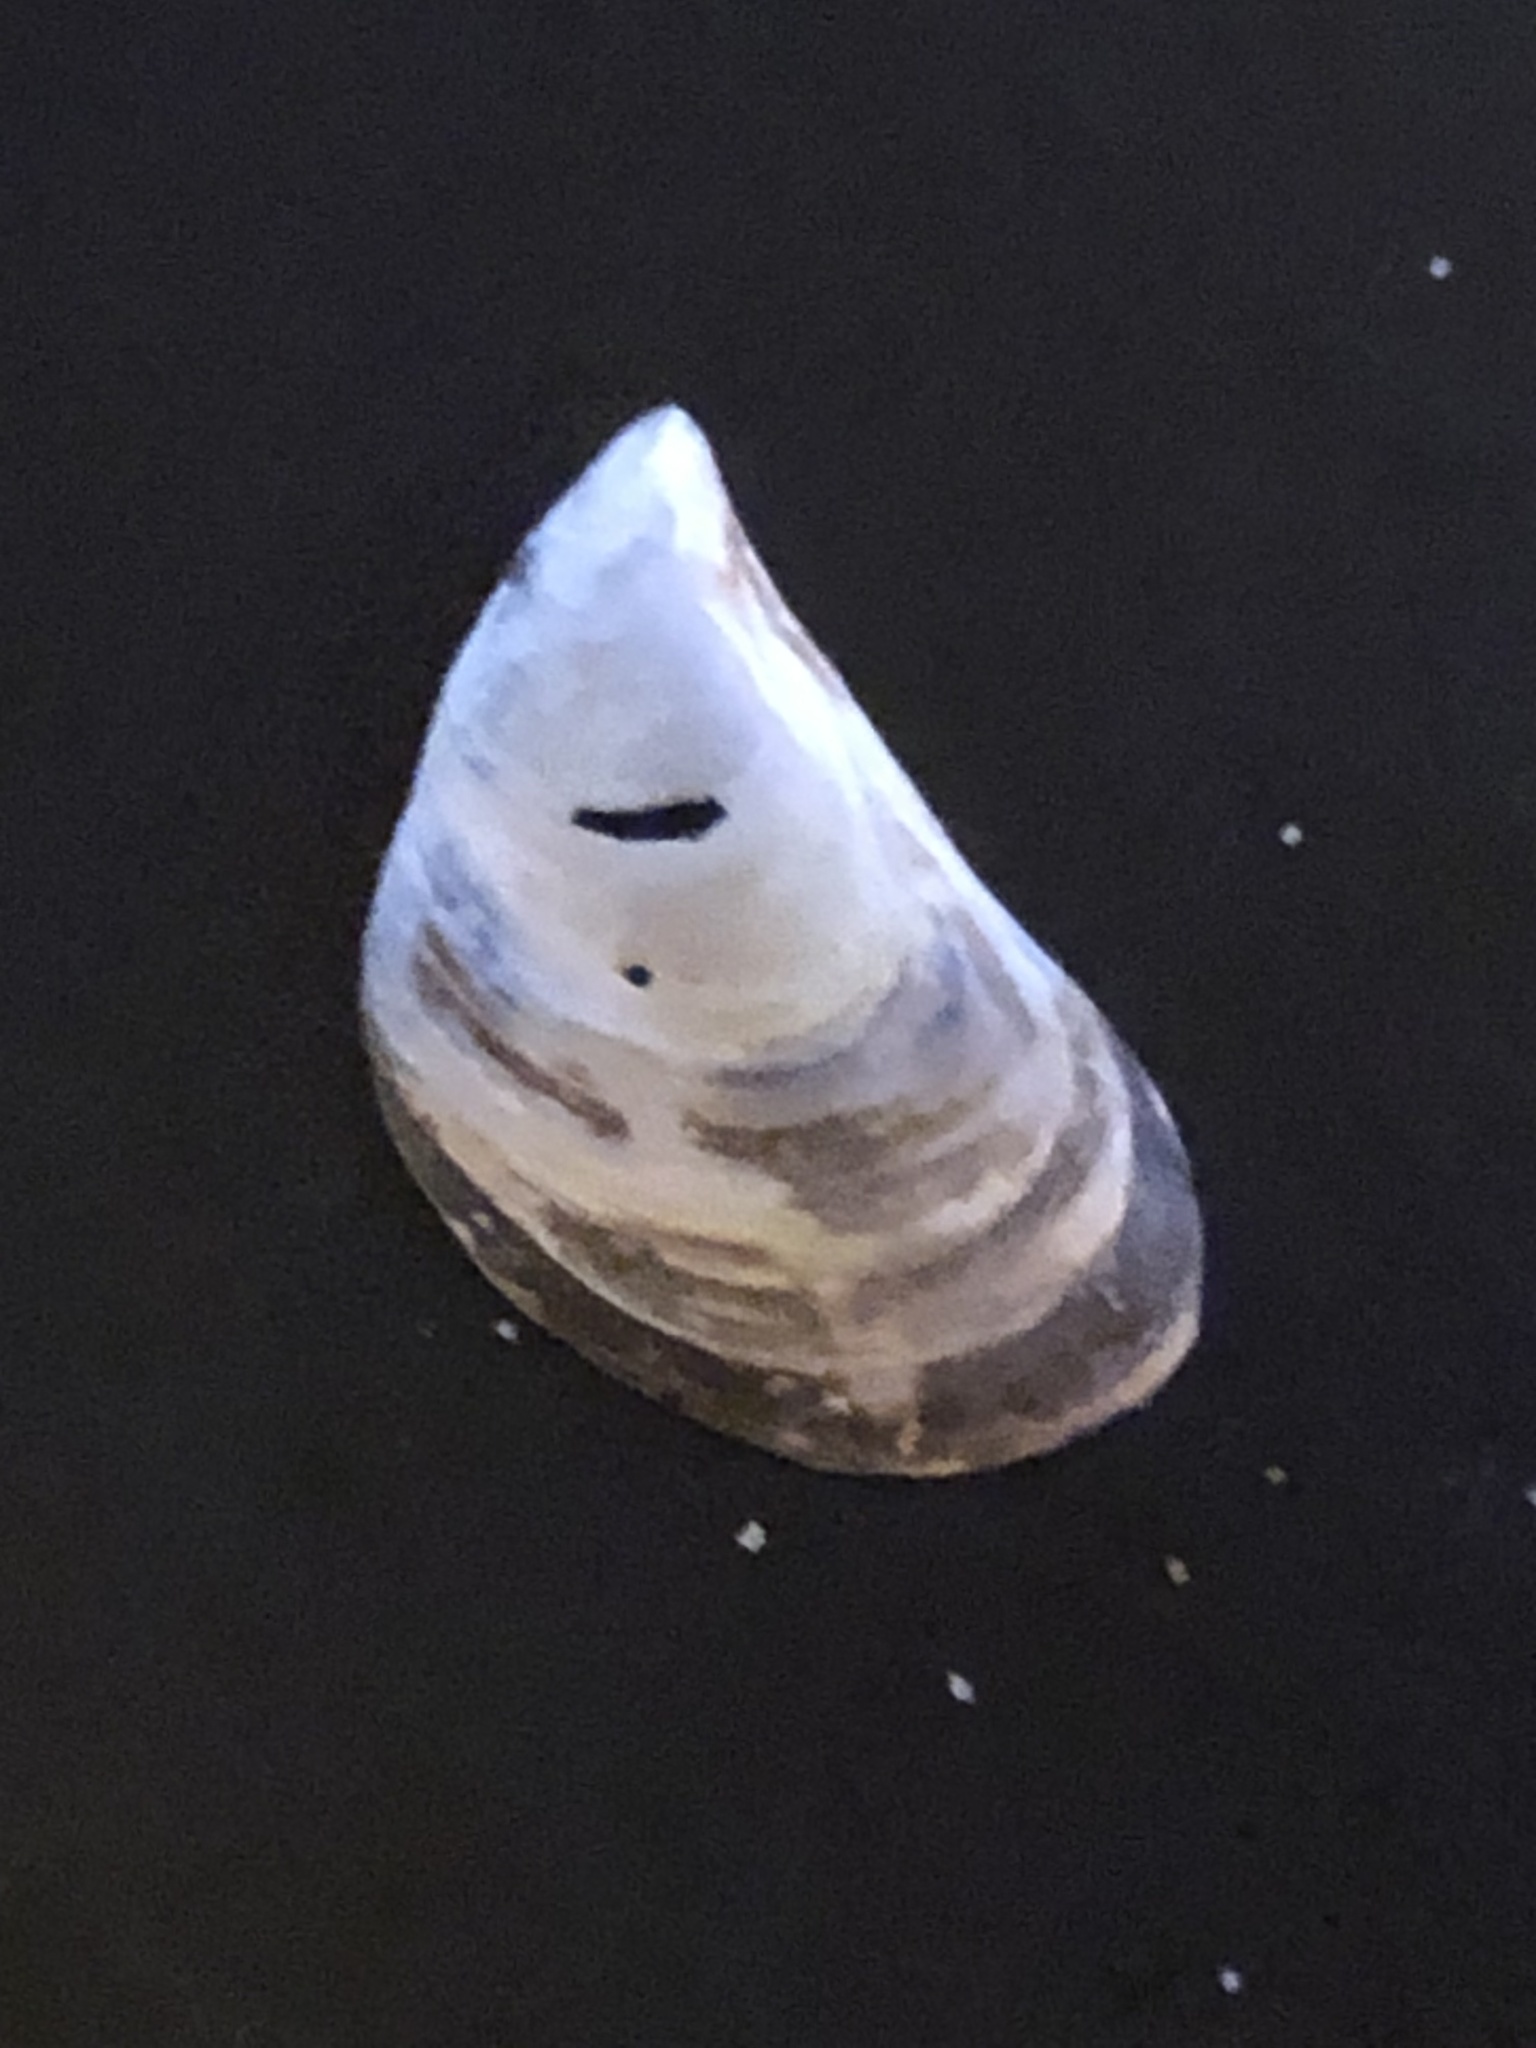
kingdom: Animalia
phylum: Mollusca
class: Bivalvia
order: Myida
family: Dreissenidae
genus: Dreissena
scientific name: Dreissena bugensis
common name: Quagga mussel
